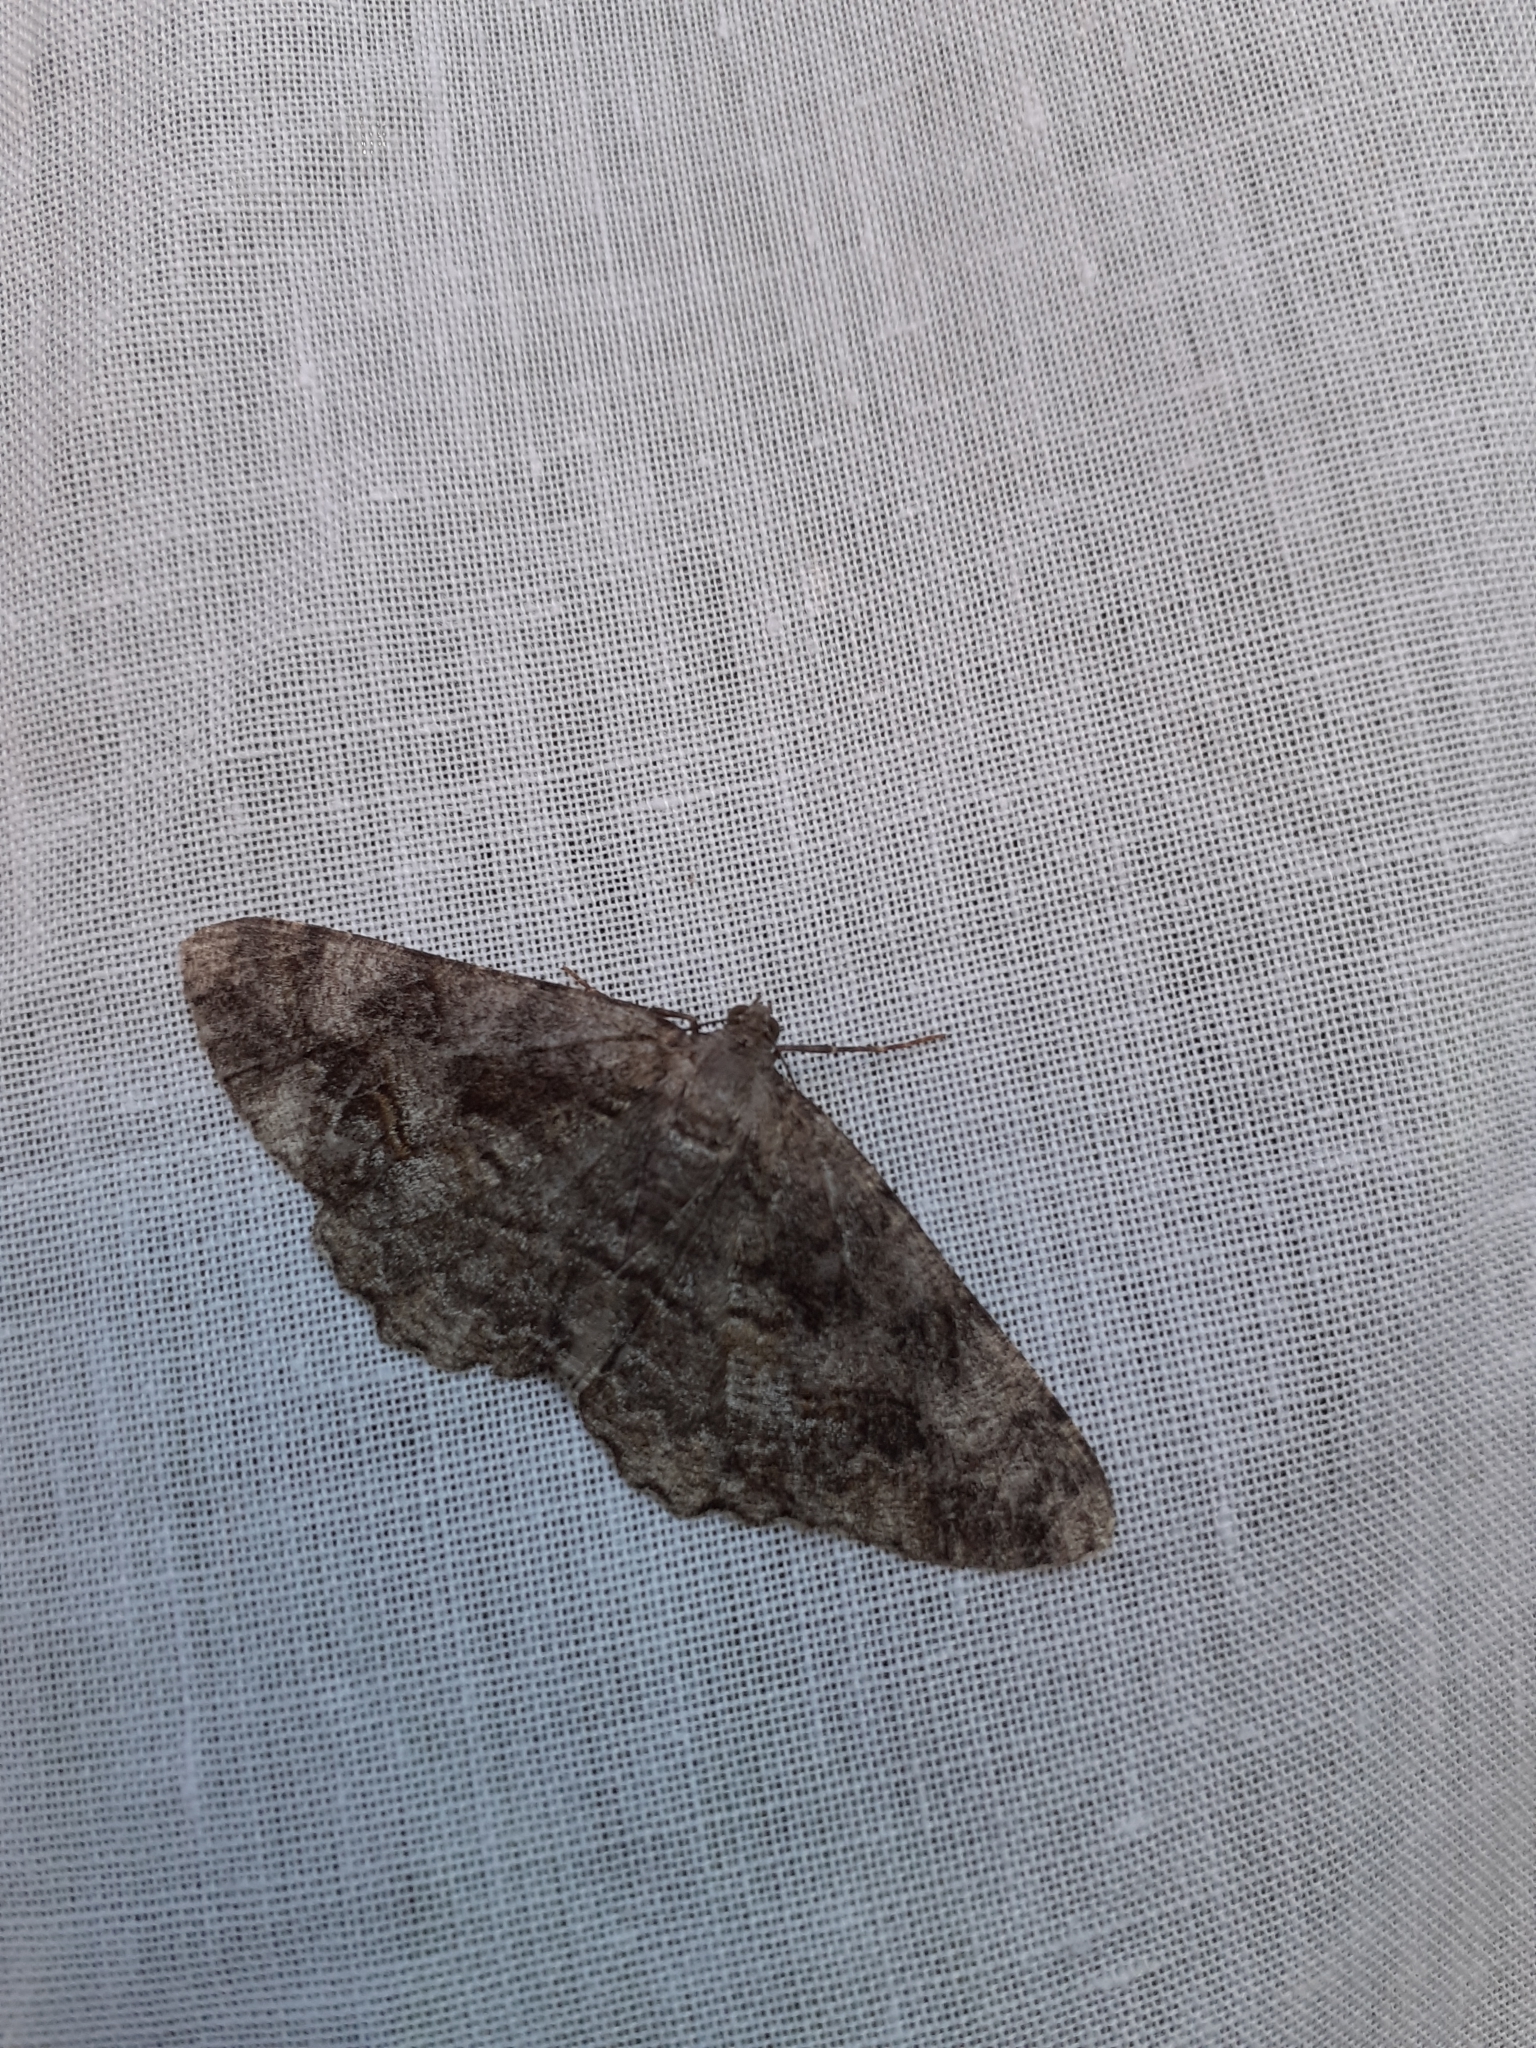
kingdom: Animalia
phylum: Arthropoda
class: Insecta
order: Lepidoptera
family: Geometridae
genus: Alcis
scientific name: Alcis repandata
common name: Mottled beauty
